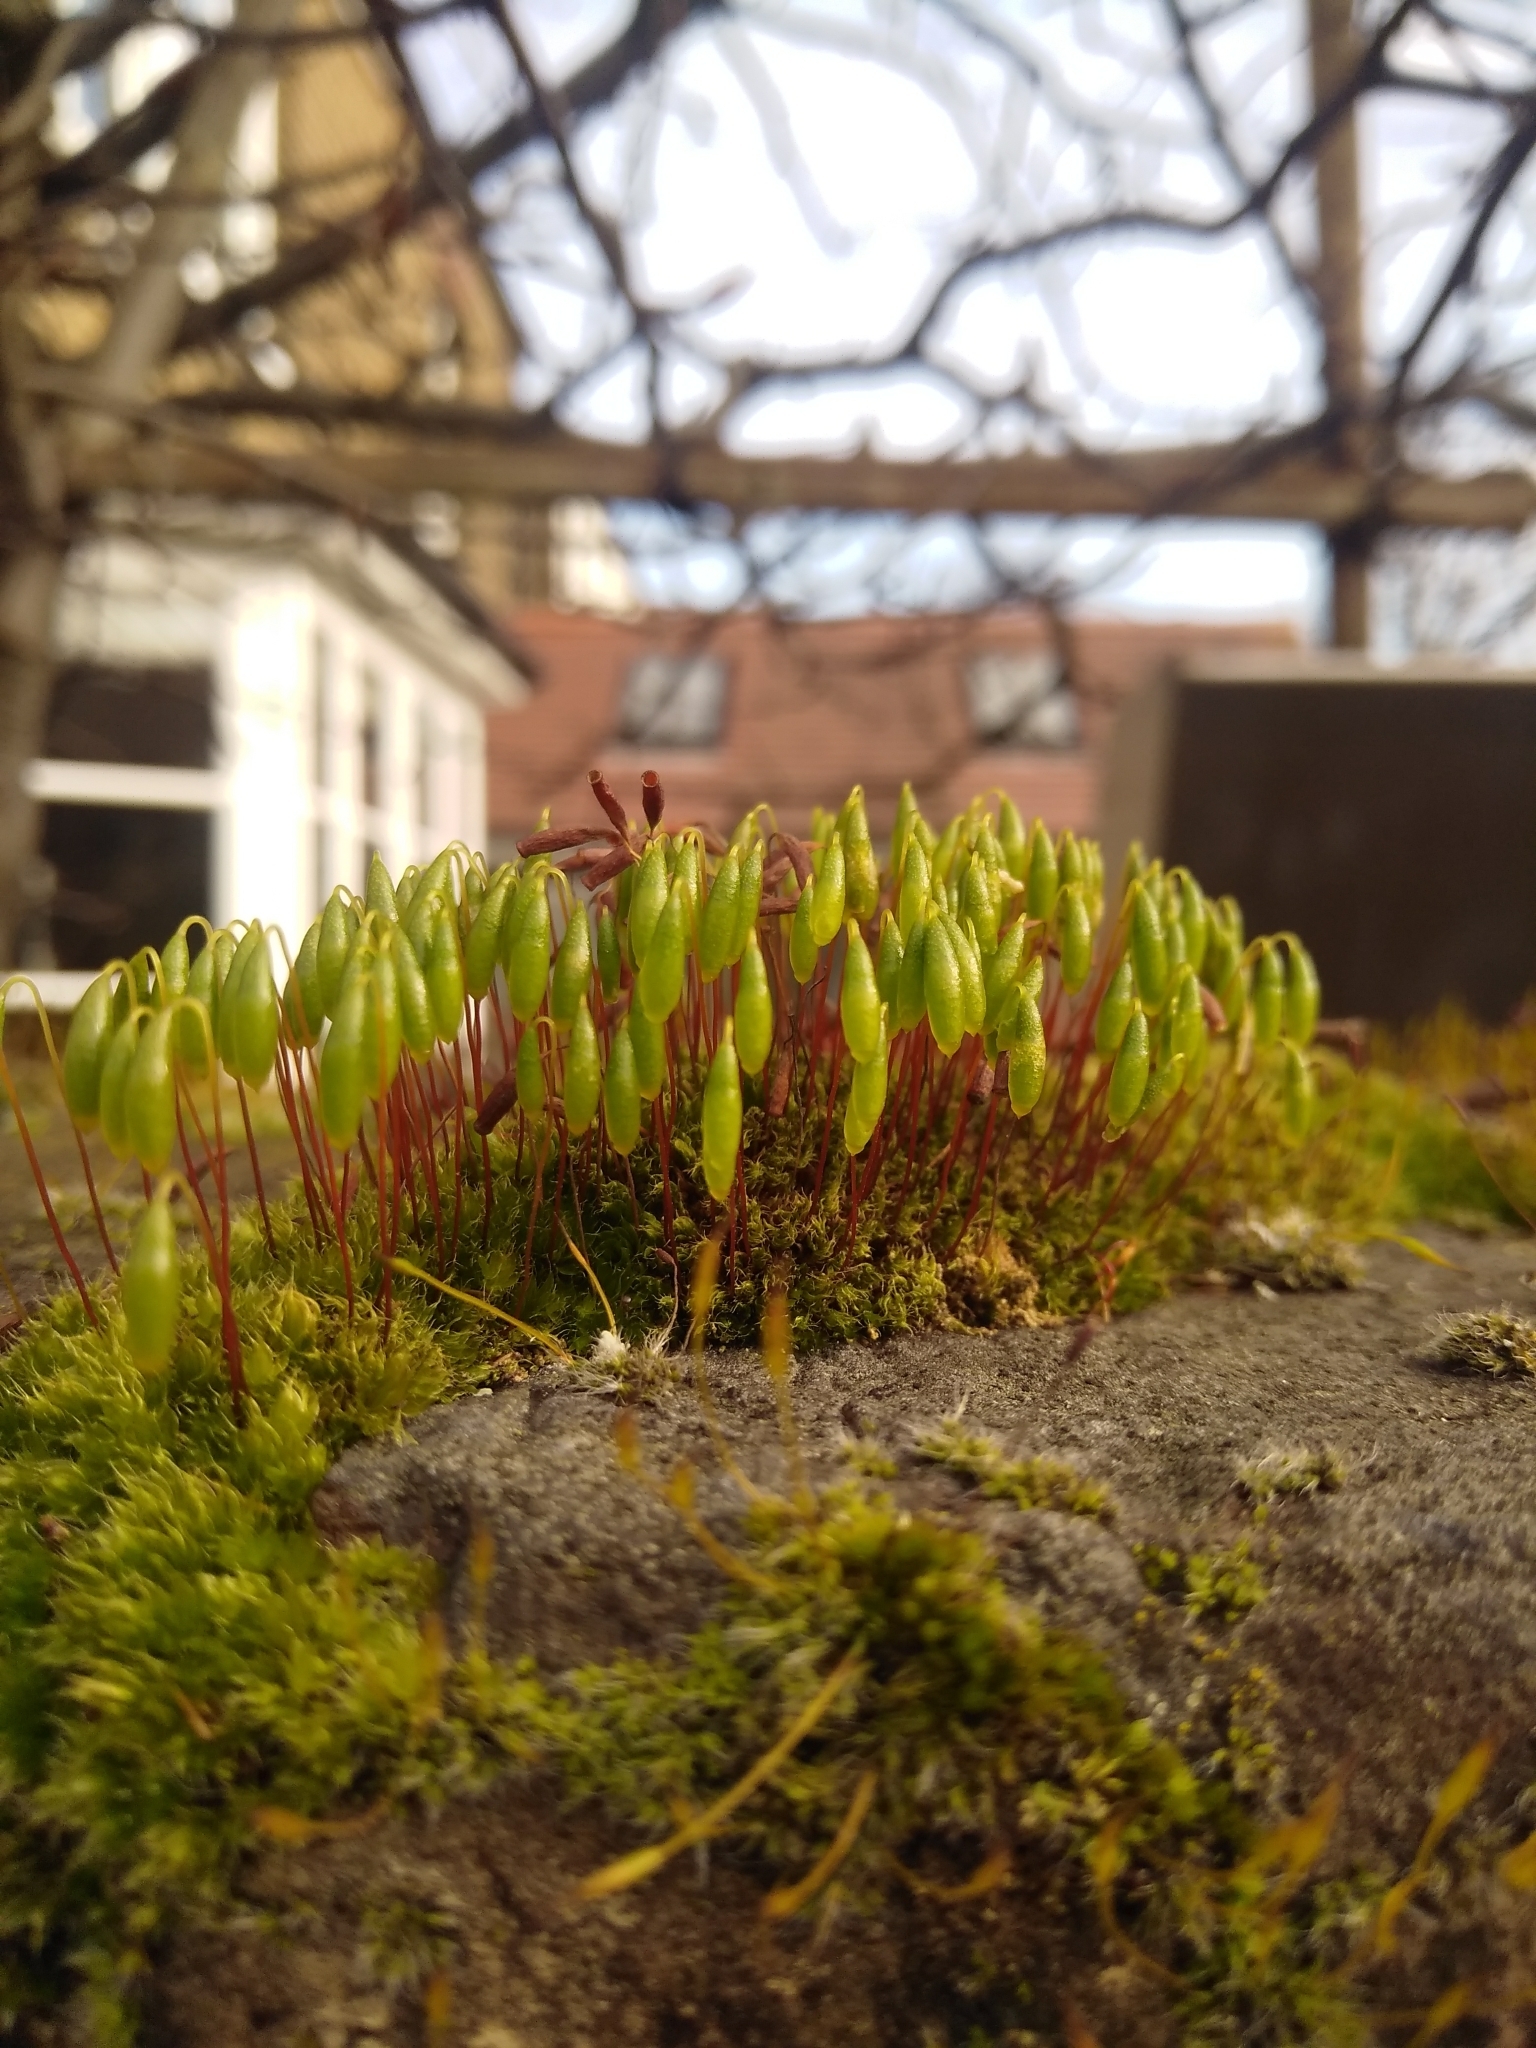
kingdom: Plantae
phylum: Bryophyta
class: Bryopsida
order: Bryales
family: Bryaceae
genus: Rosulabryum
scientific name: Rosulabryum capillare
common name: Capillary thread-moss
